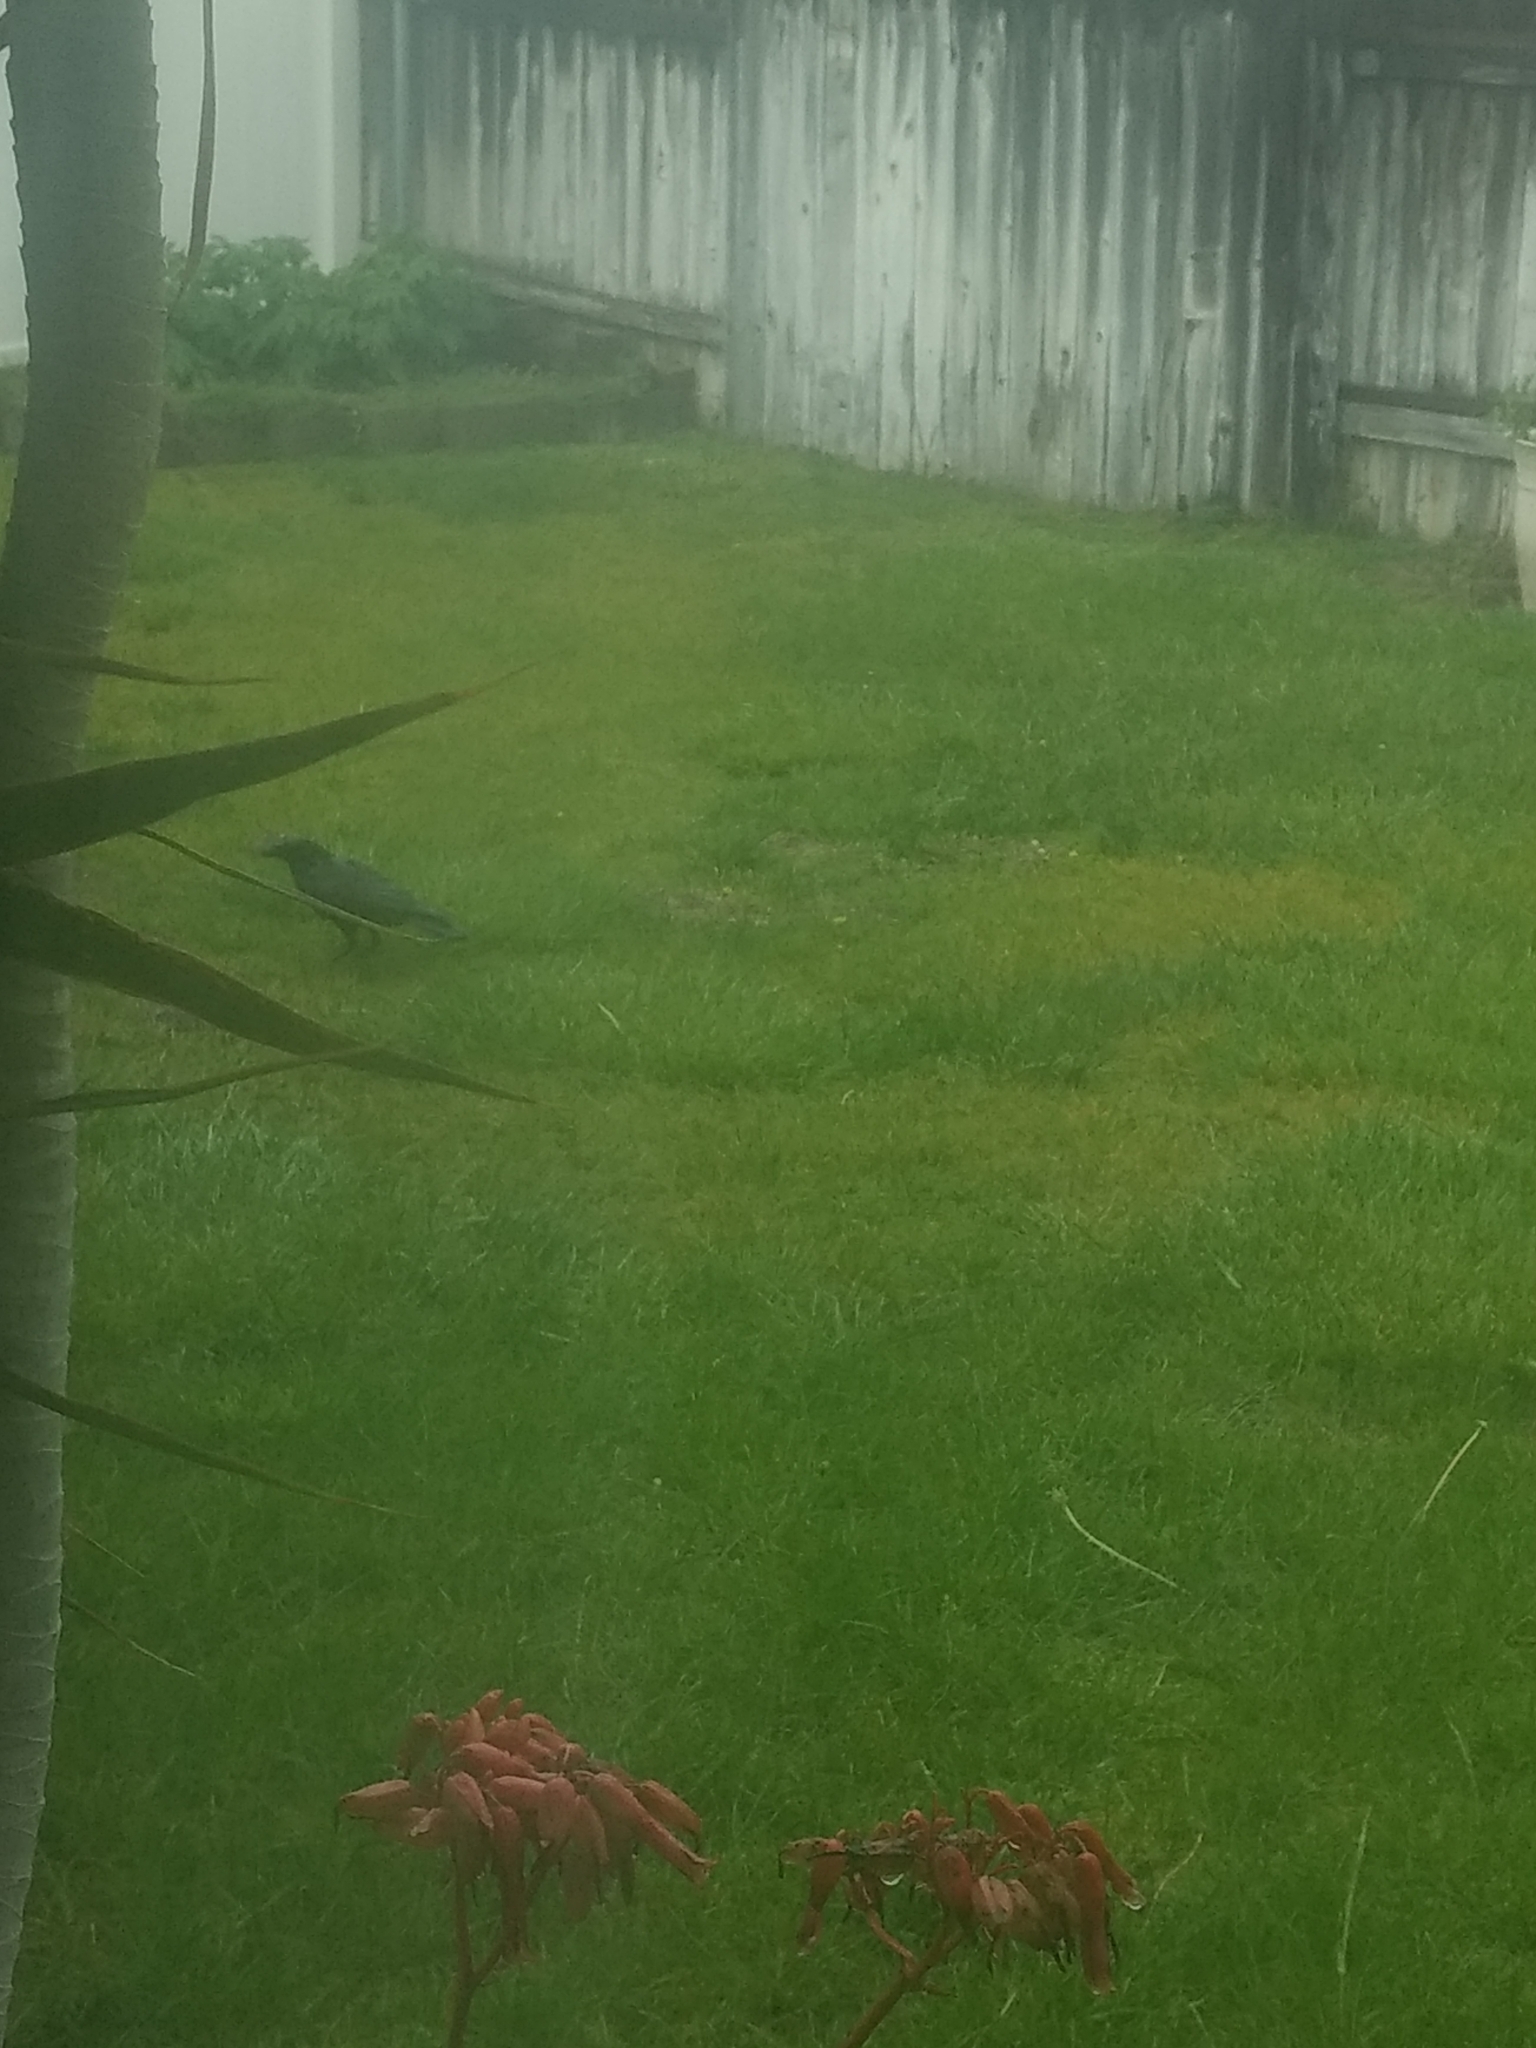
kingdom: Animalia
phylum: Chordata
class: Aves
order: Passeriformes
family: Corvidae
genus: Corvus
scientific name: Corvus brachyrhynchos
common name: American crow
